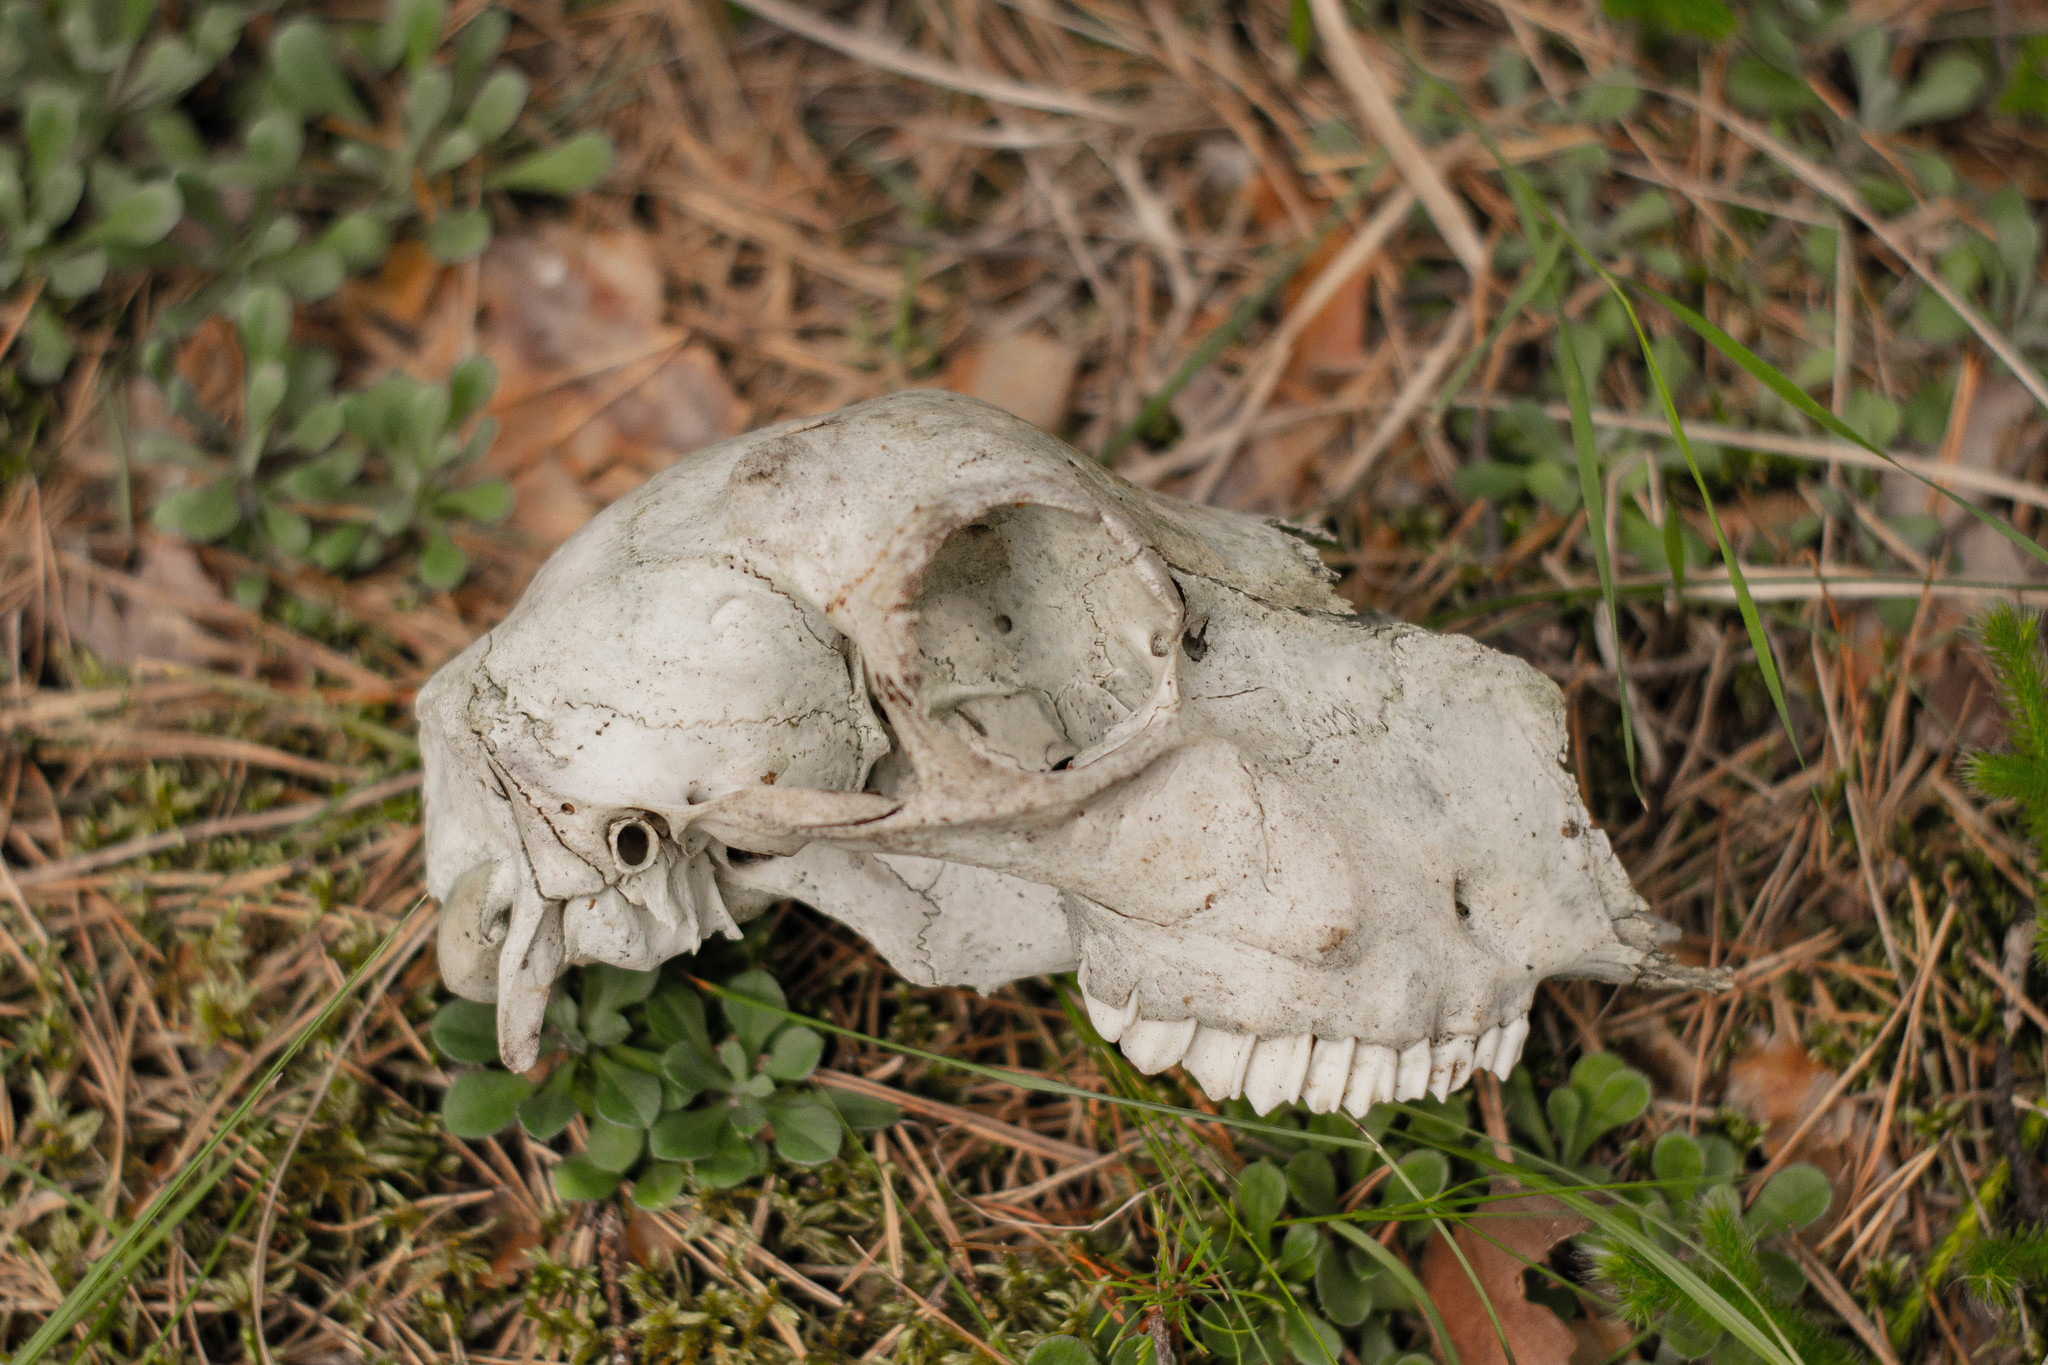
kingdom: Animalia
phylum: Chordata
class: Mammalia
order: Artiodactyla
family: Bovidae
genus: Ovis
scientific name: Ovis aries
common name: Domestic sheep
